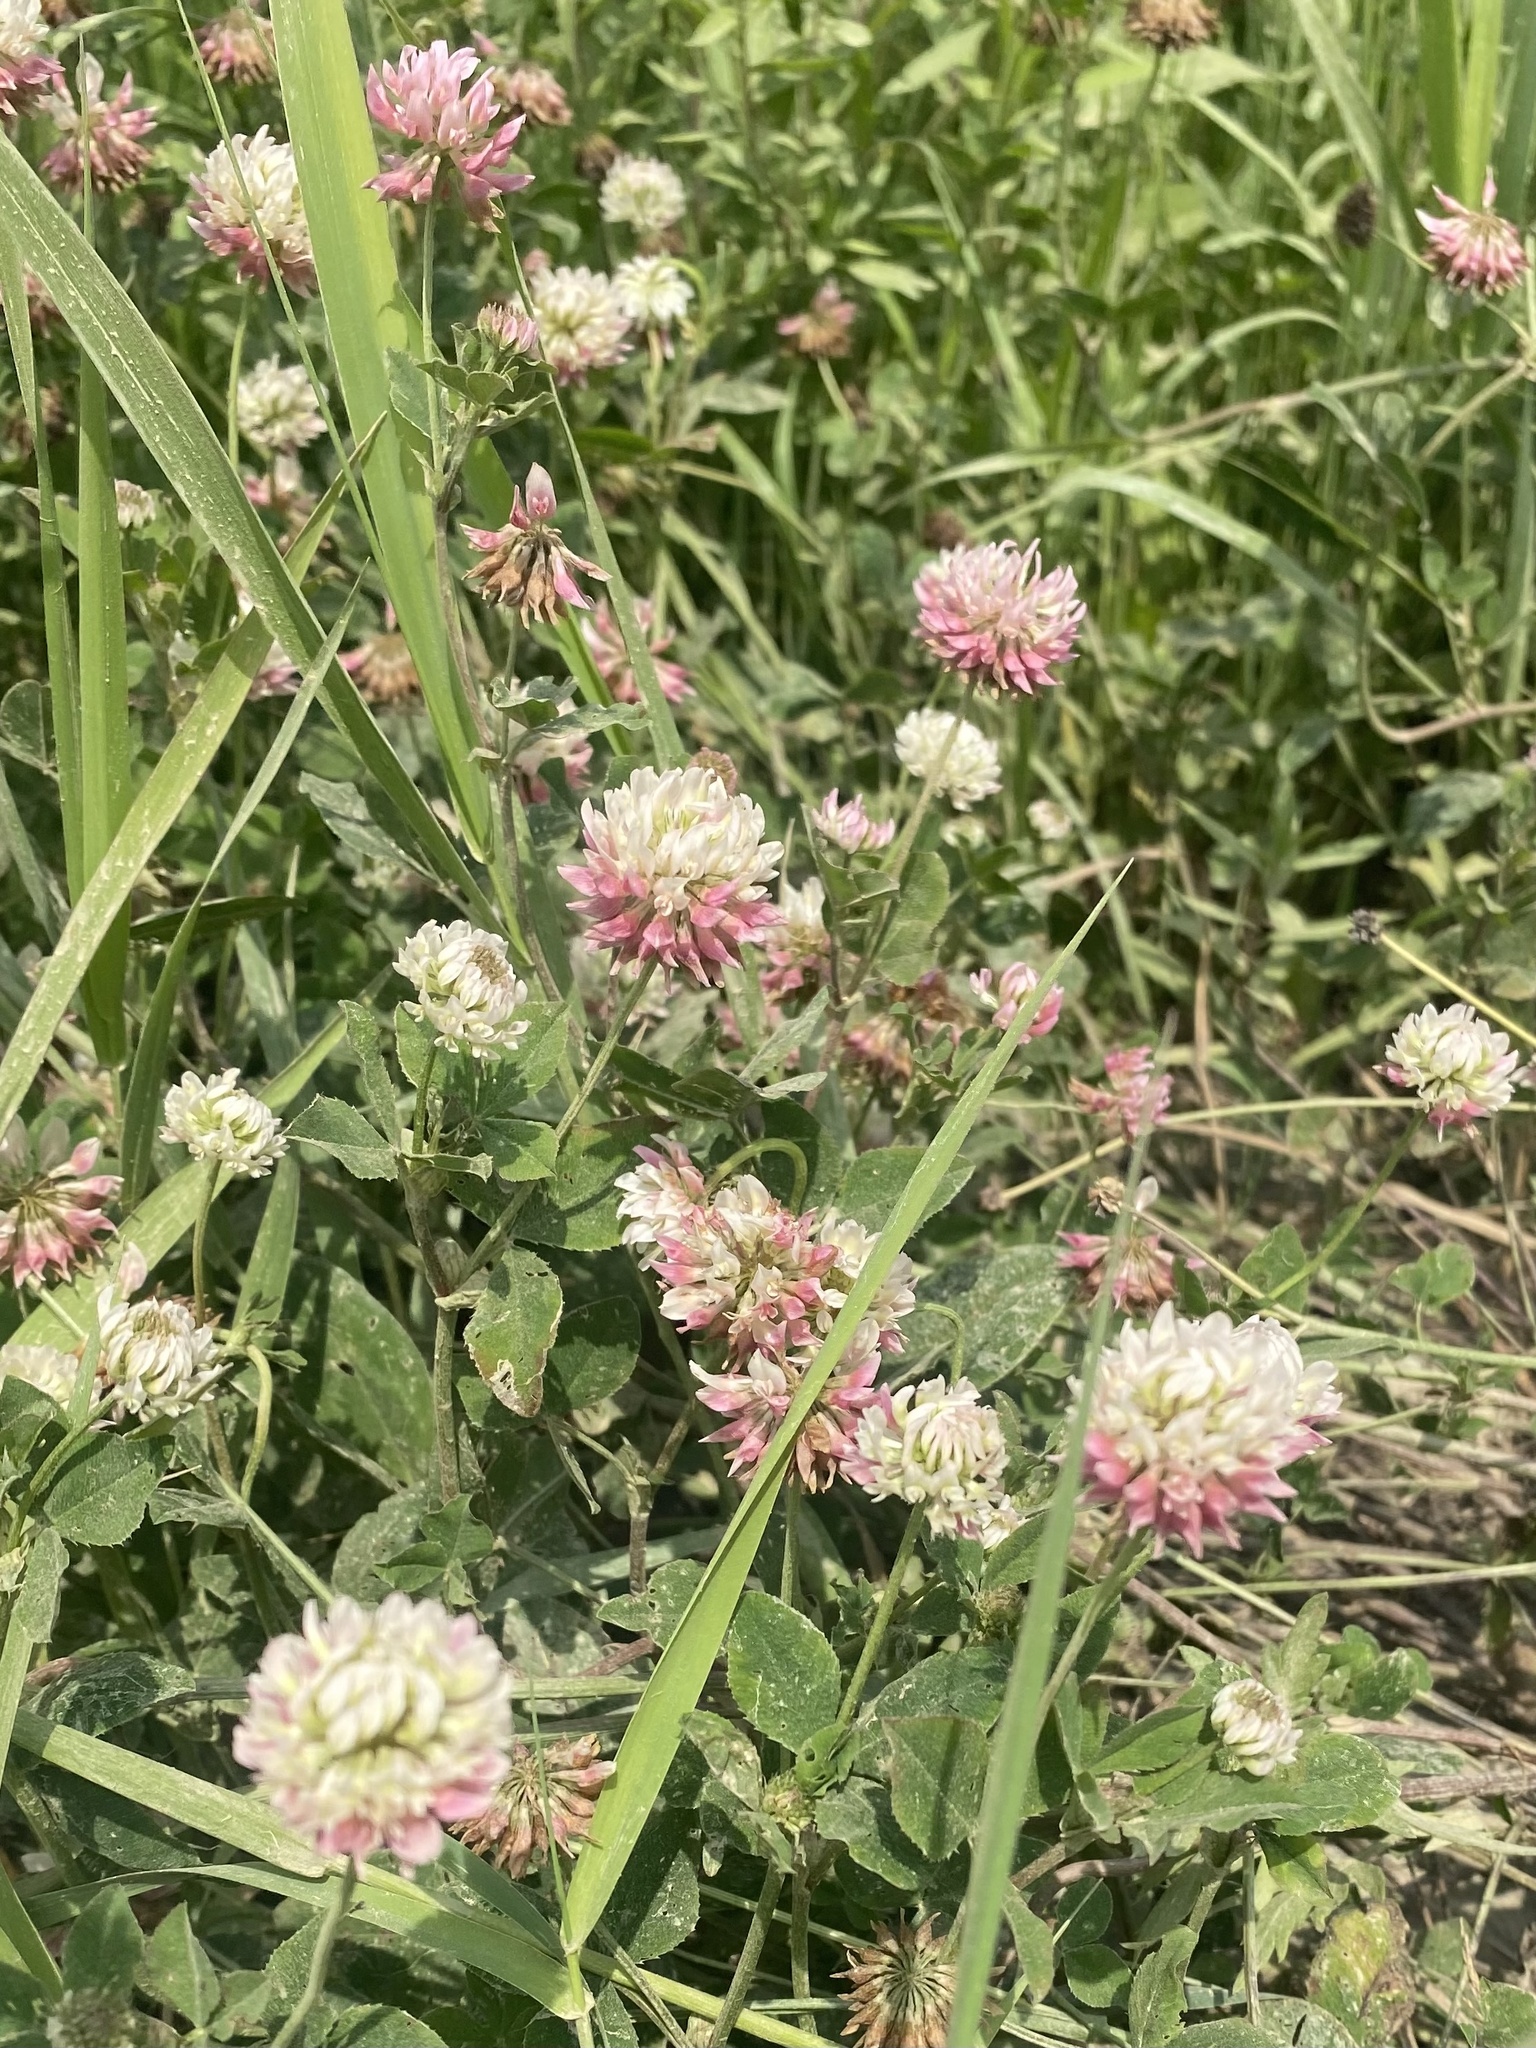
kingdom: Plantae
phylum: Tracheophyta
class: Magnoliopsida
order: Fabales
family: Fabaceae
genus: Trifolium
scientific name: Trifolium hybridum
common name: Alsike clover
